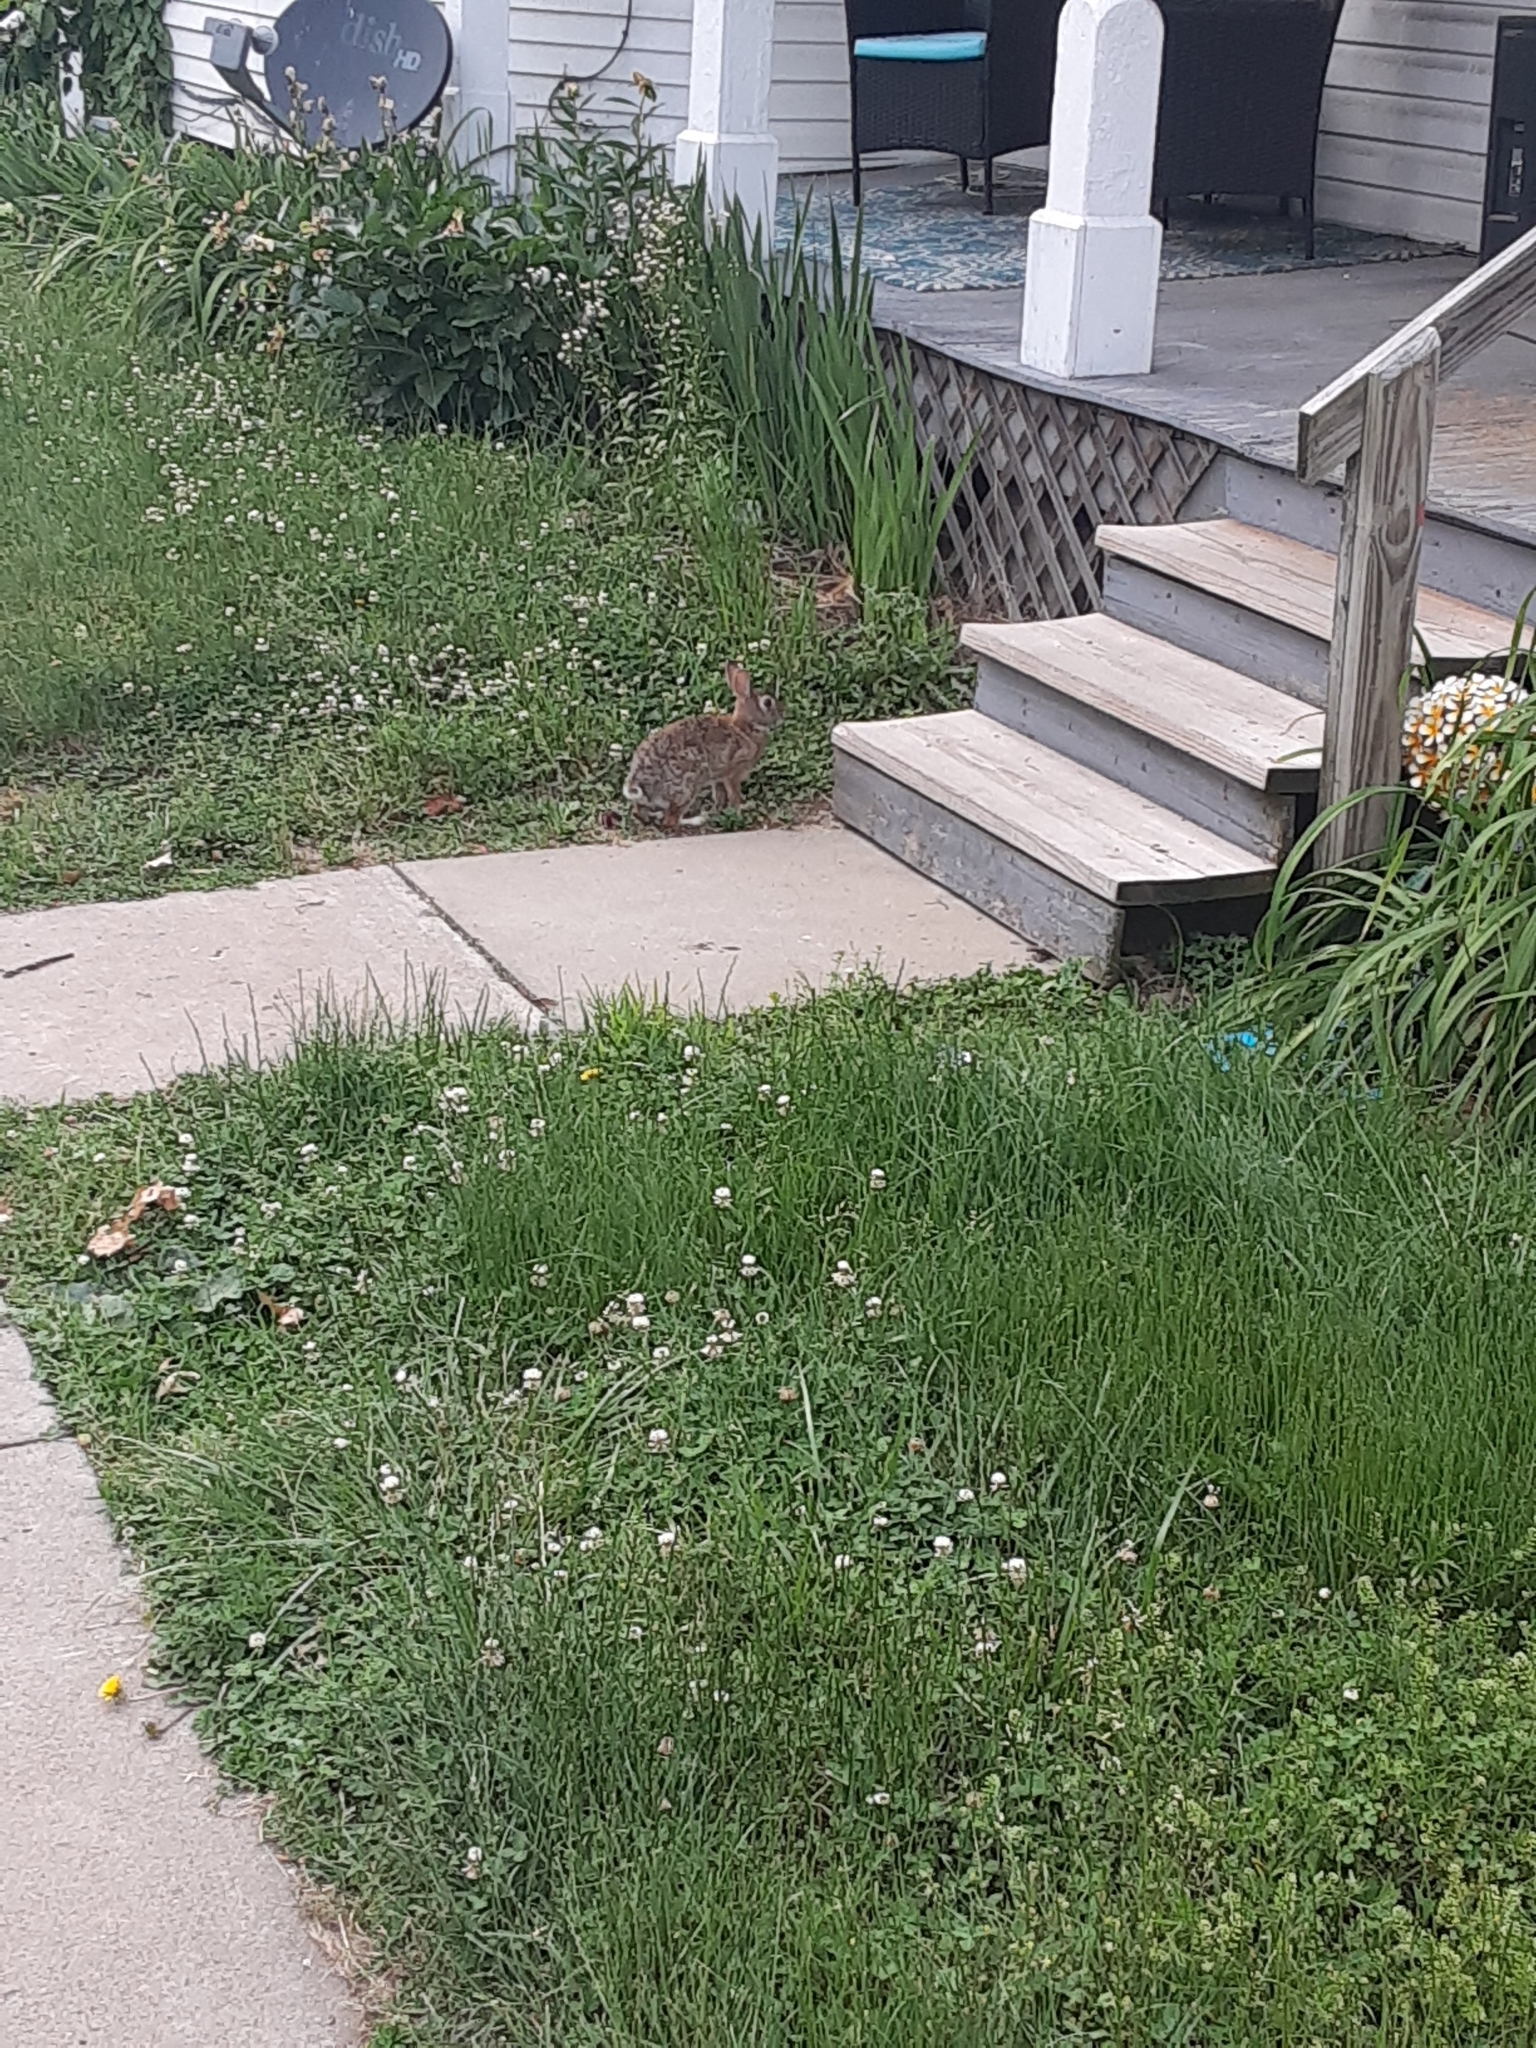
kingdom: Animalia
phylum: Chordata
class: Mammalia
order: Lagomorpha
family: Leporidae
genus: Sylvilagus
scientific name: Sylvilagus floridanus
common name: Eastern cottontail
